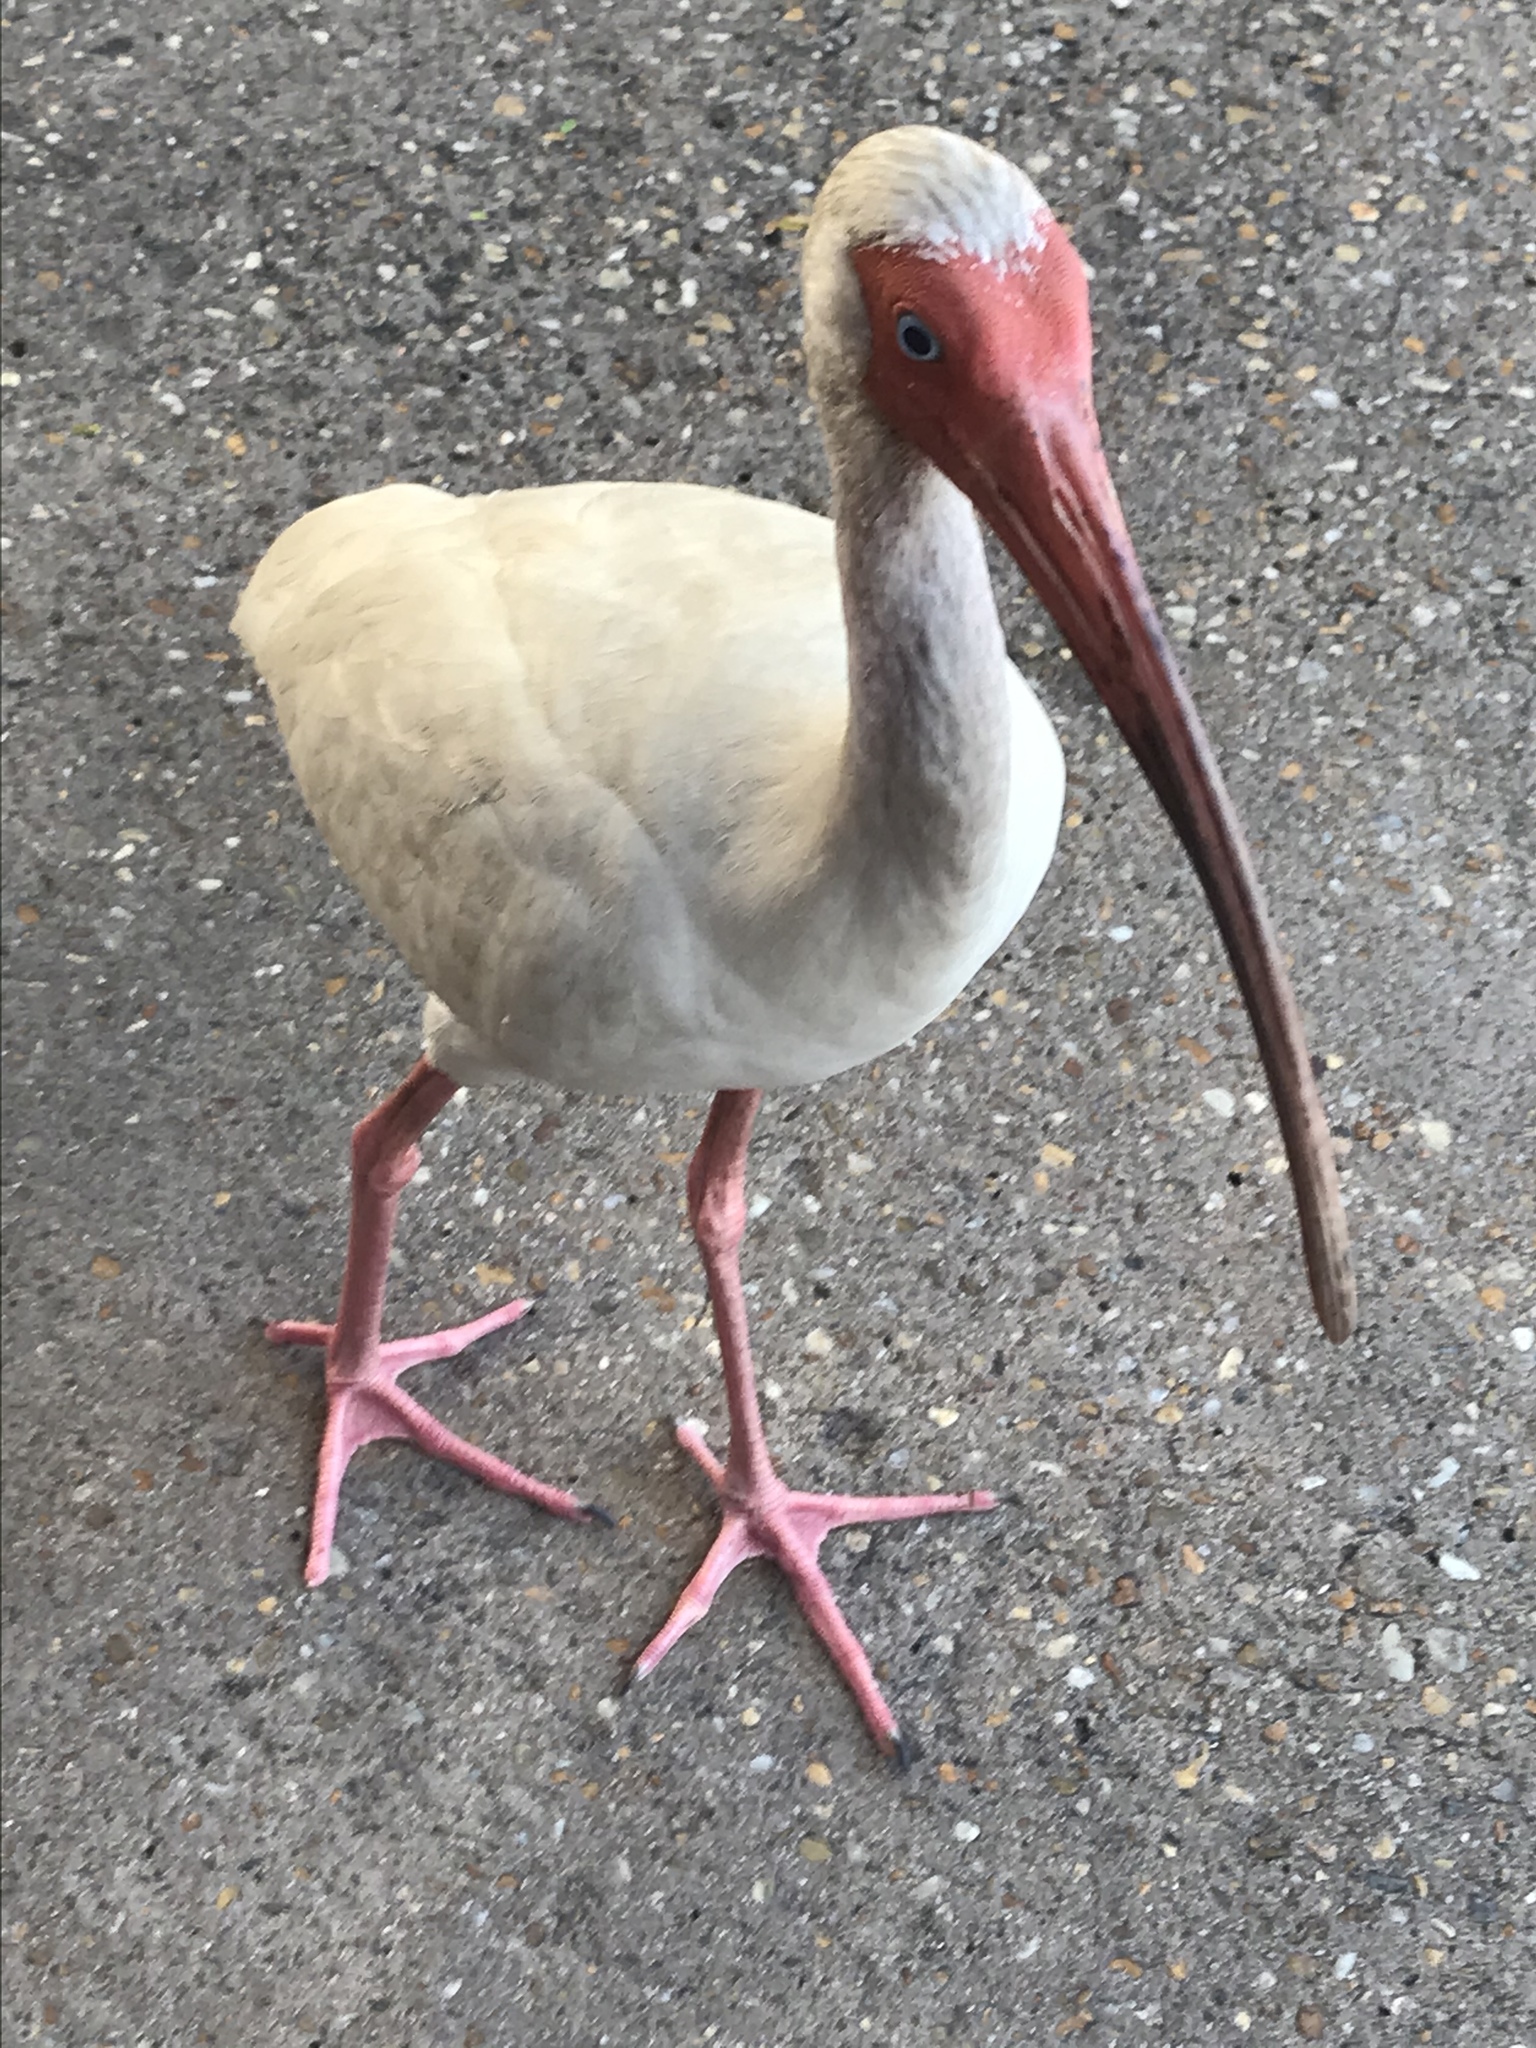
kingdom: Animalia
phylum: Chordata
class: Aves
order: Pelecaniformes
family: Threskiornithidae
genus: Eudocimus
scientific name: Eudocimus albus
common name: White ibis
